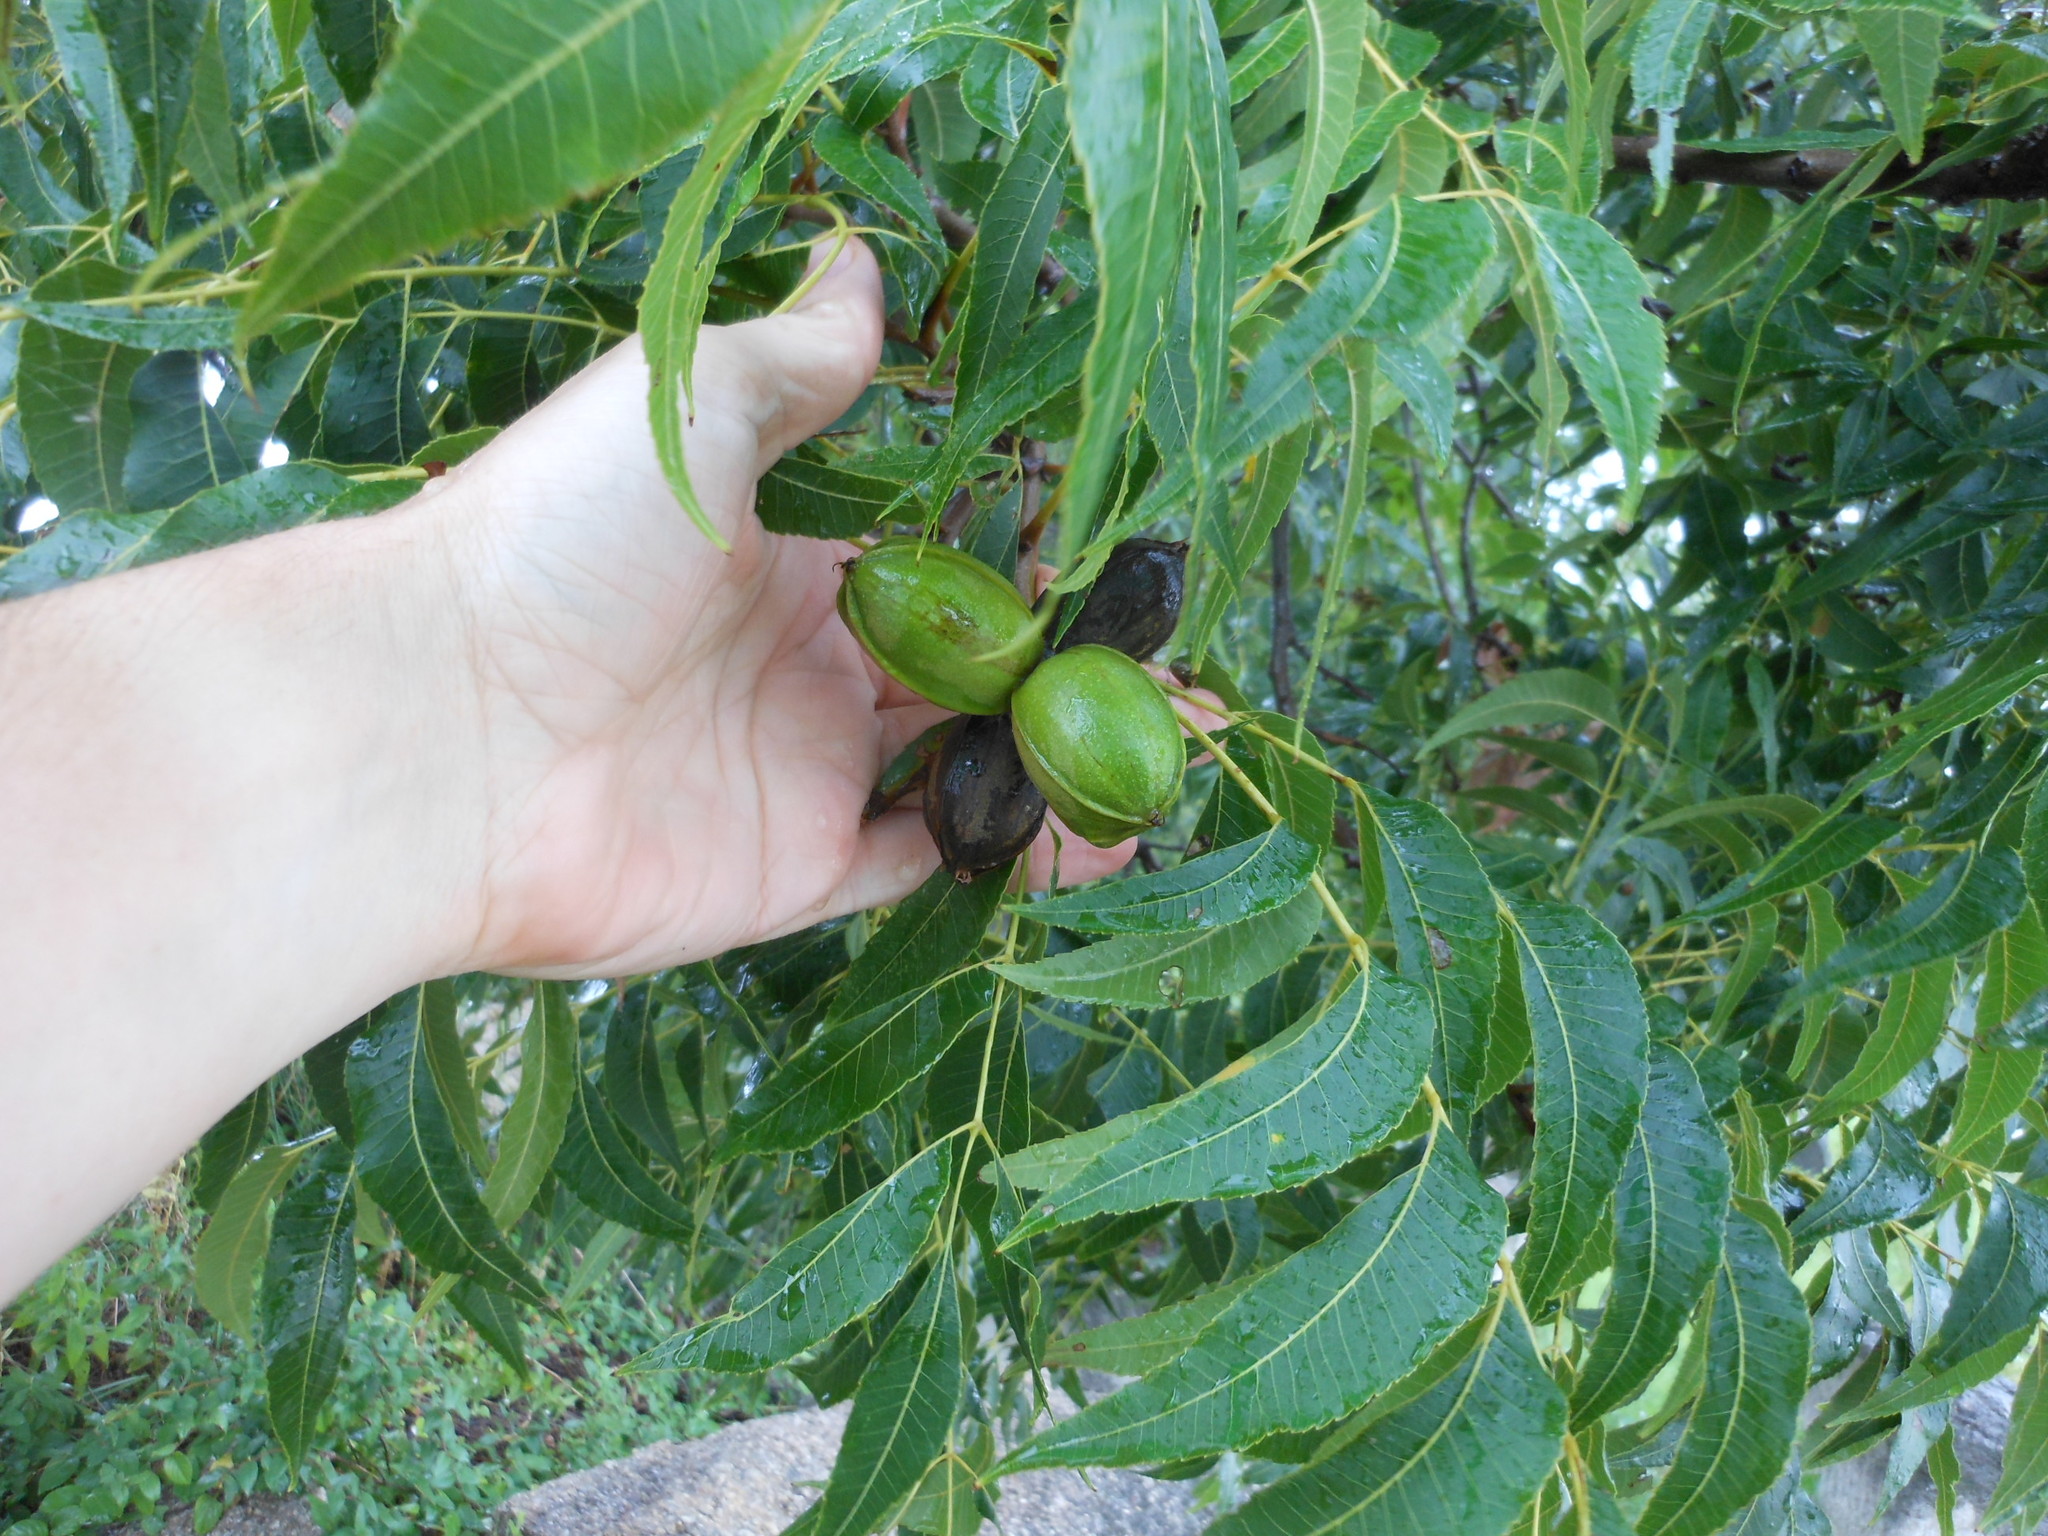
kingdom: Plantae
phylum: Tracheophyta
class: Magnoliopsida
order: Fagales
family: Juglandaceae
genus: Carya
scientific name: Carya illinoinensis
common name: Pecan
